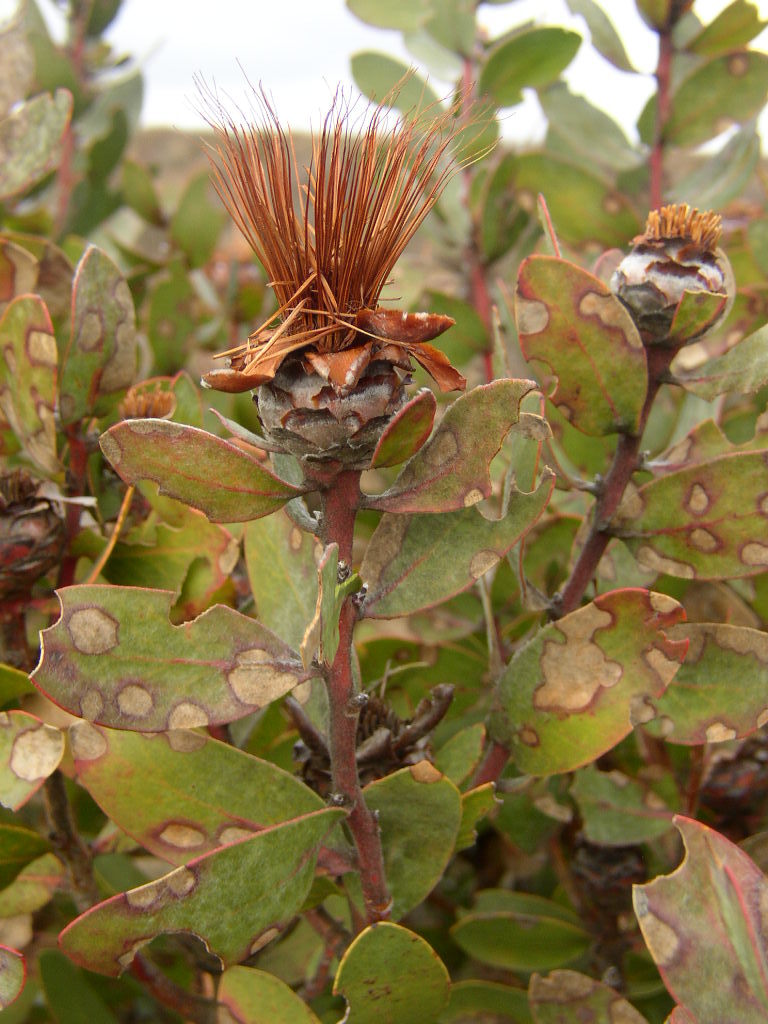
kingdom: Plantae
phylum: Tracheophyta
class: Magnoliopsida
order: Proteales
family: Proteaceae
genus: Protea
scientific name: Protea punctata
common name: Water sugarbush
